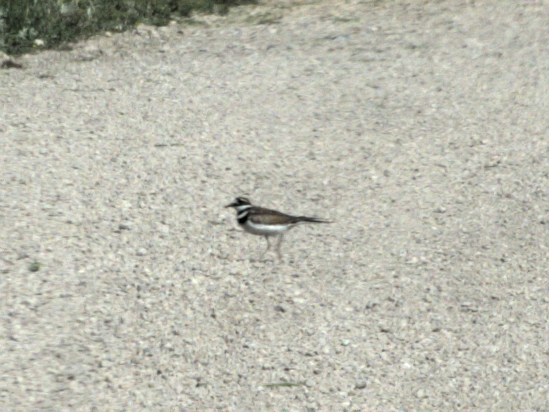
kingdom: Animalia
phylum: Chordata
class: Aves
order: Charadriiformes
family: Charadriidae
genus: Charadrius
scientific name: Charadrius vociferus
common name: Killdeer
